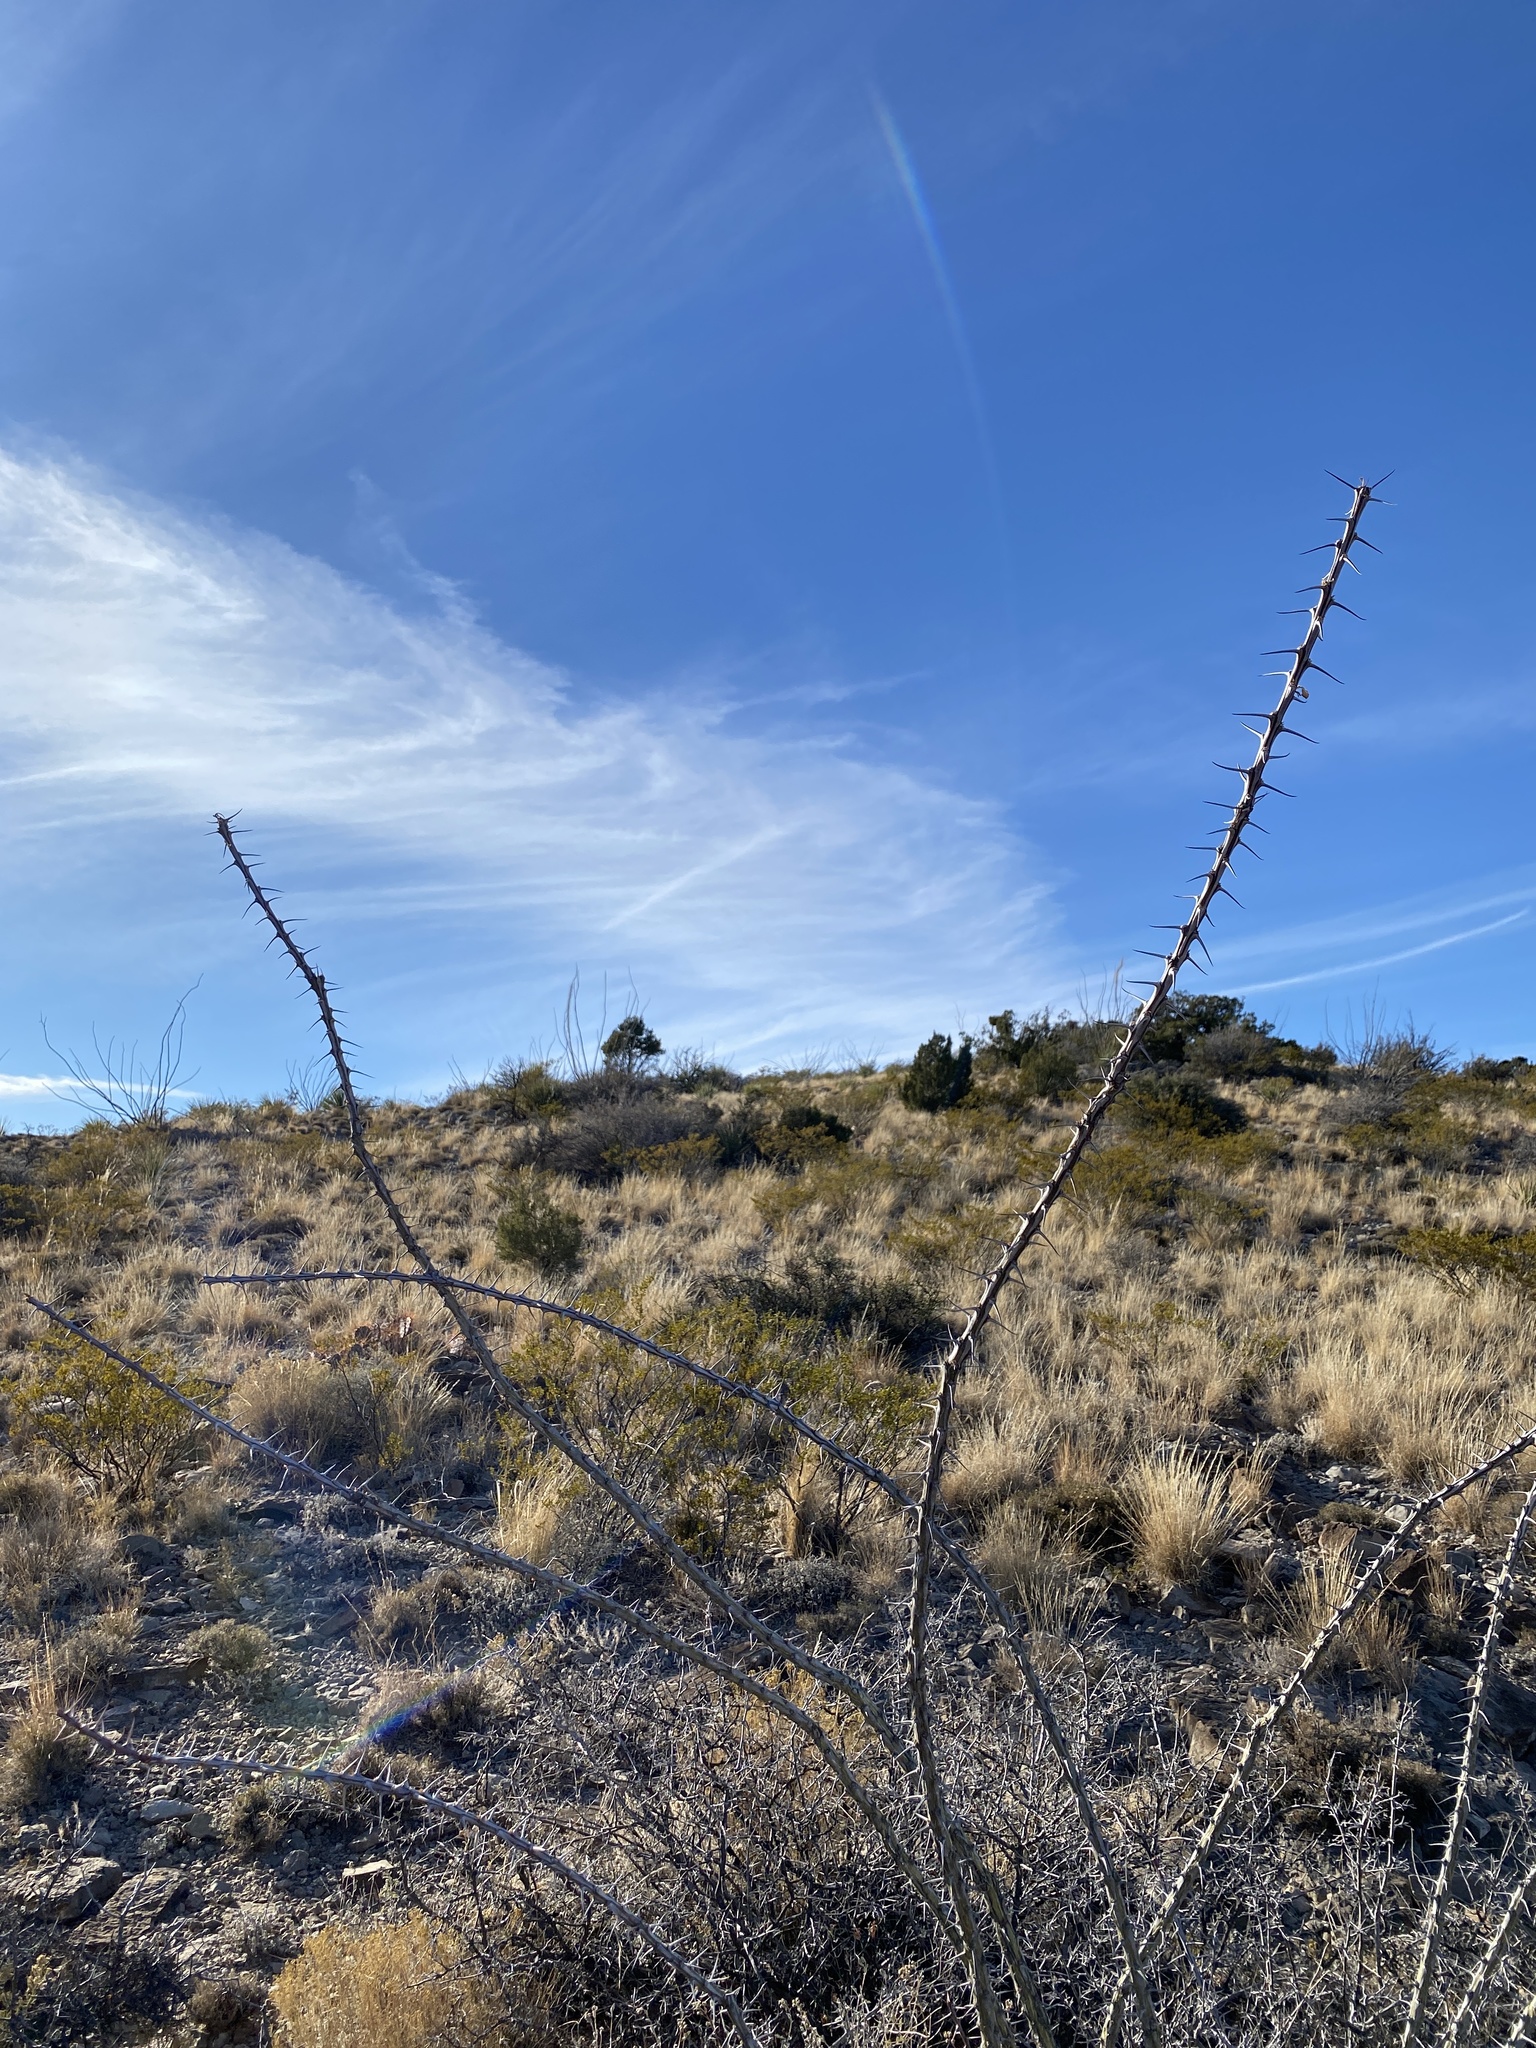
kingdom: Plantae
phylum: Tracheophyta
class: Magnoliopsida
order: Ericales
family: Fouquieriaceae
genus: Fouquieria
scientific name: Fouquieria splendens
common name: Vine-cactus
